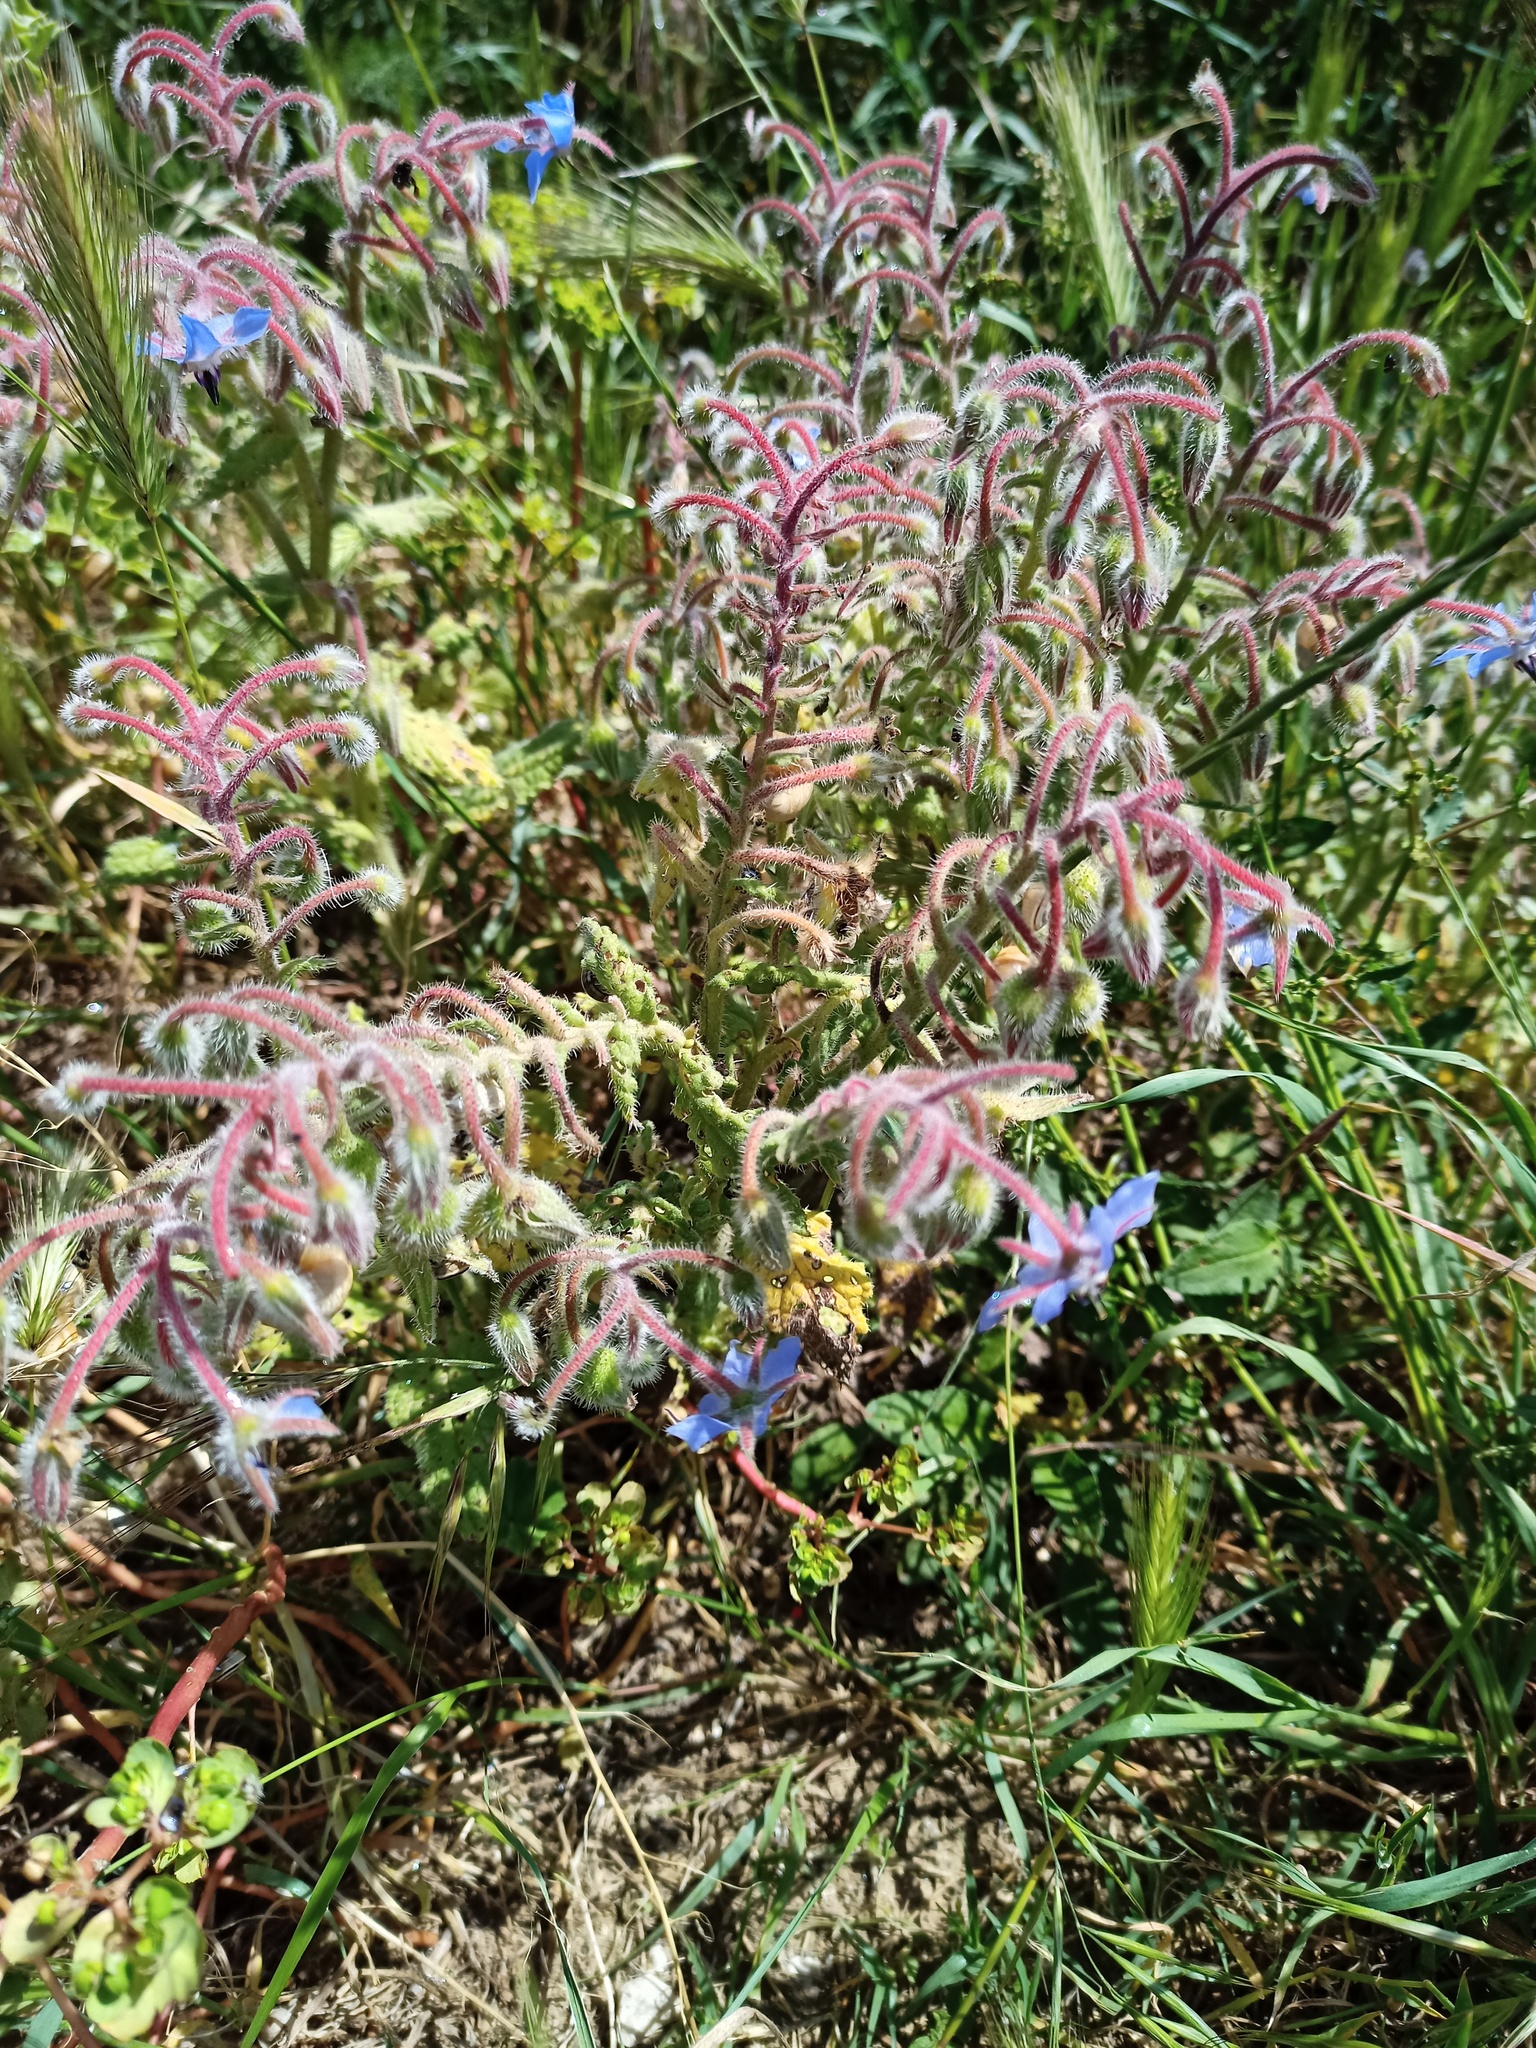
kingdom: Plantae
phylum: Tracheophyta
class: Magnoliopsida
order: Boraginales
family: Boraginaceae
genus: Borago
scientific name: Borago officinalis
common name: Borage
